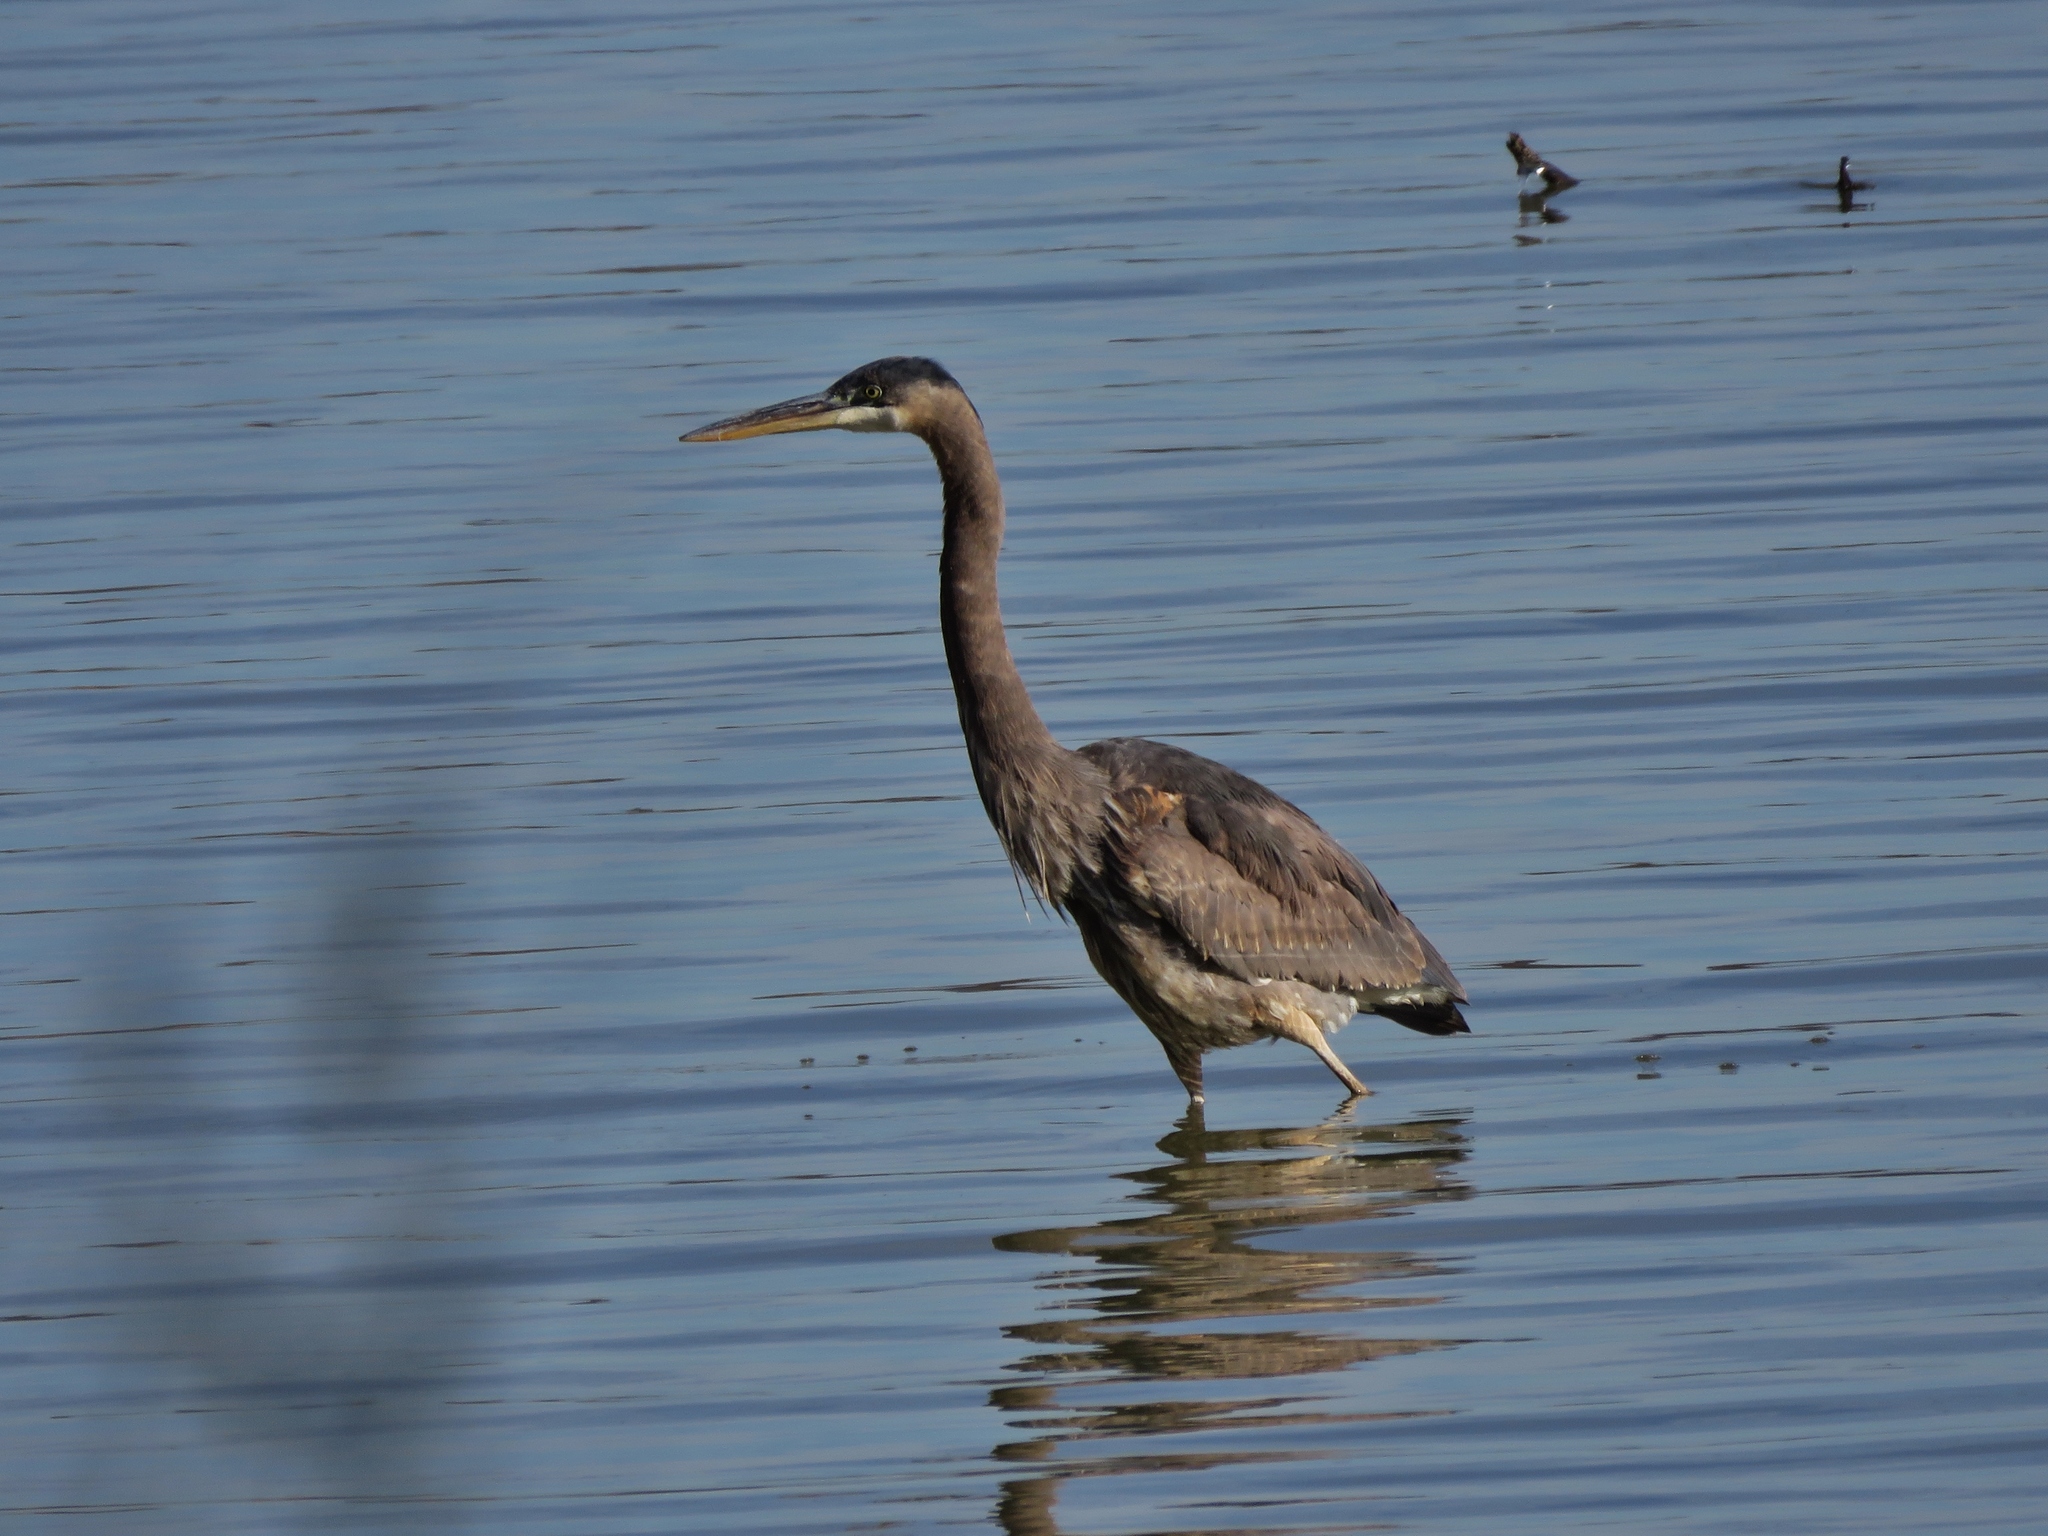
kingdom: Animalia
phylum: Chordata
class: Aves
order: Pelecaniformes
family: Ardeidae
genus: Ardea
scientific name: Ardea herodias
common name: Great blue heron
